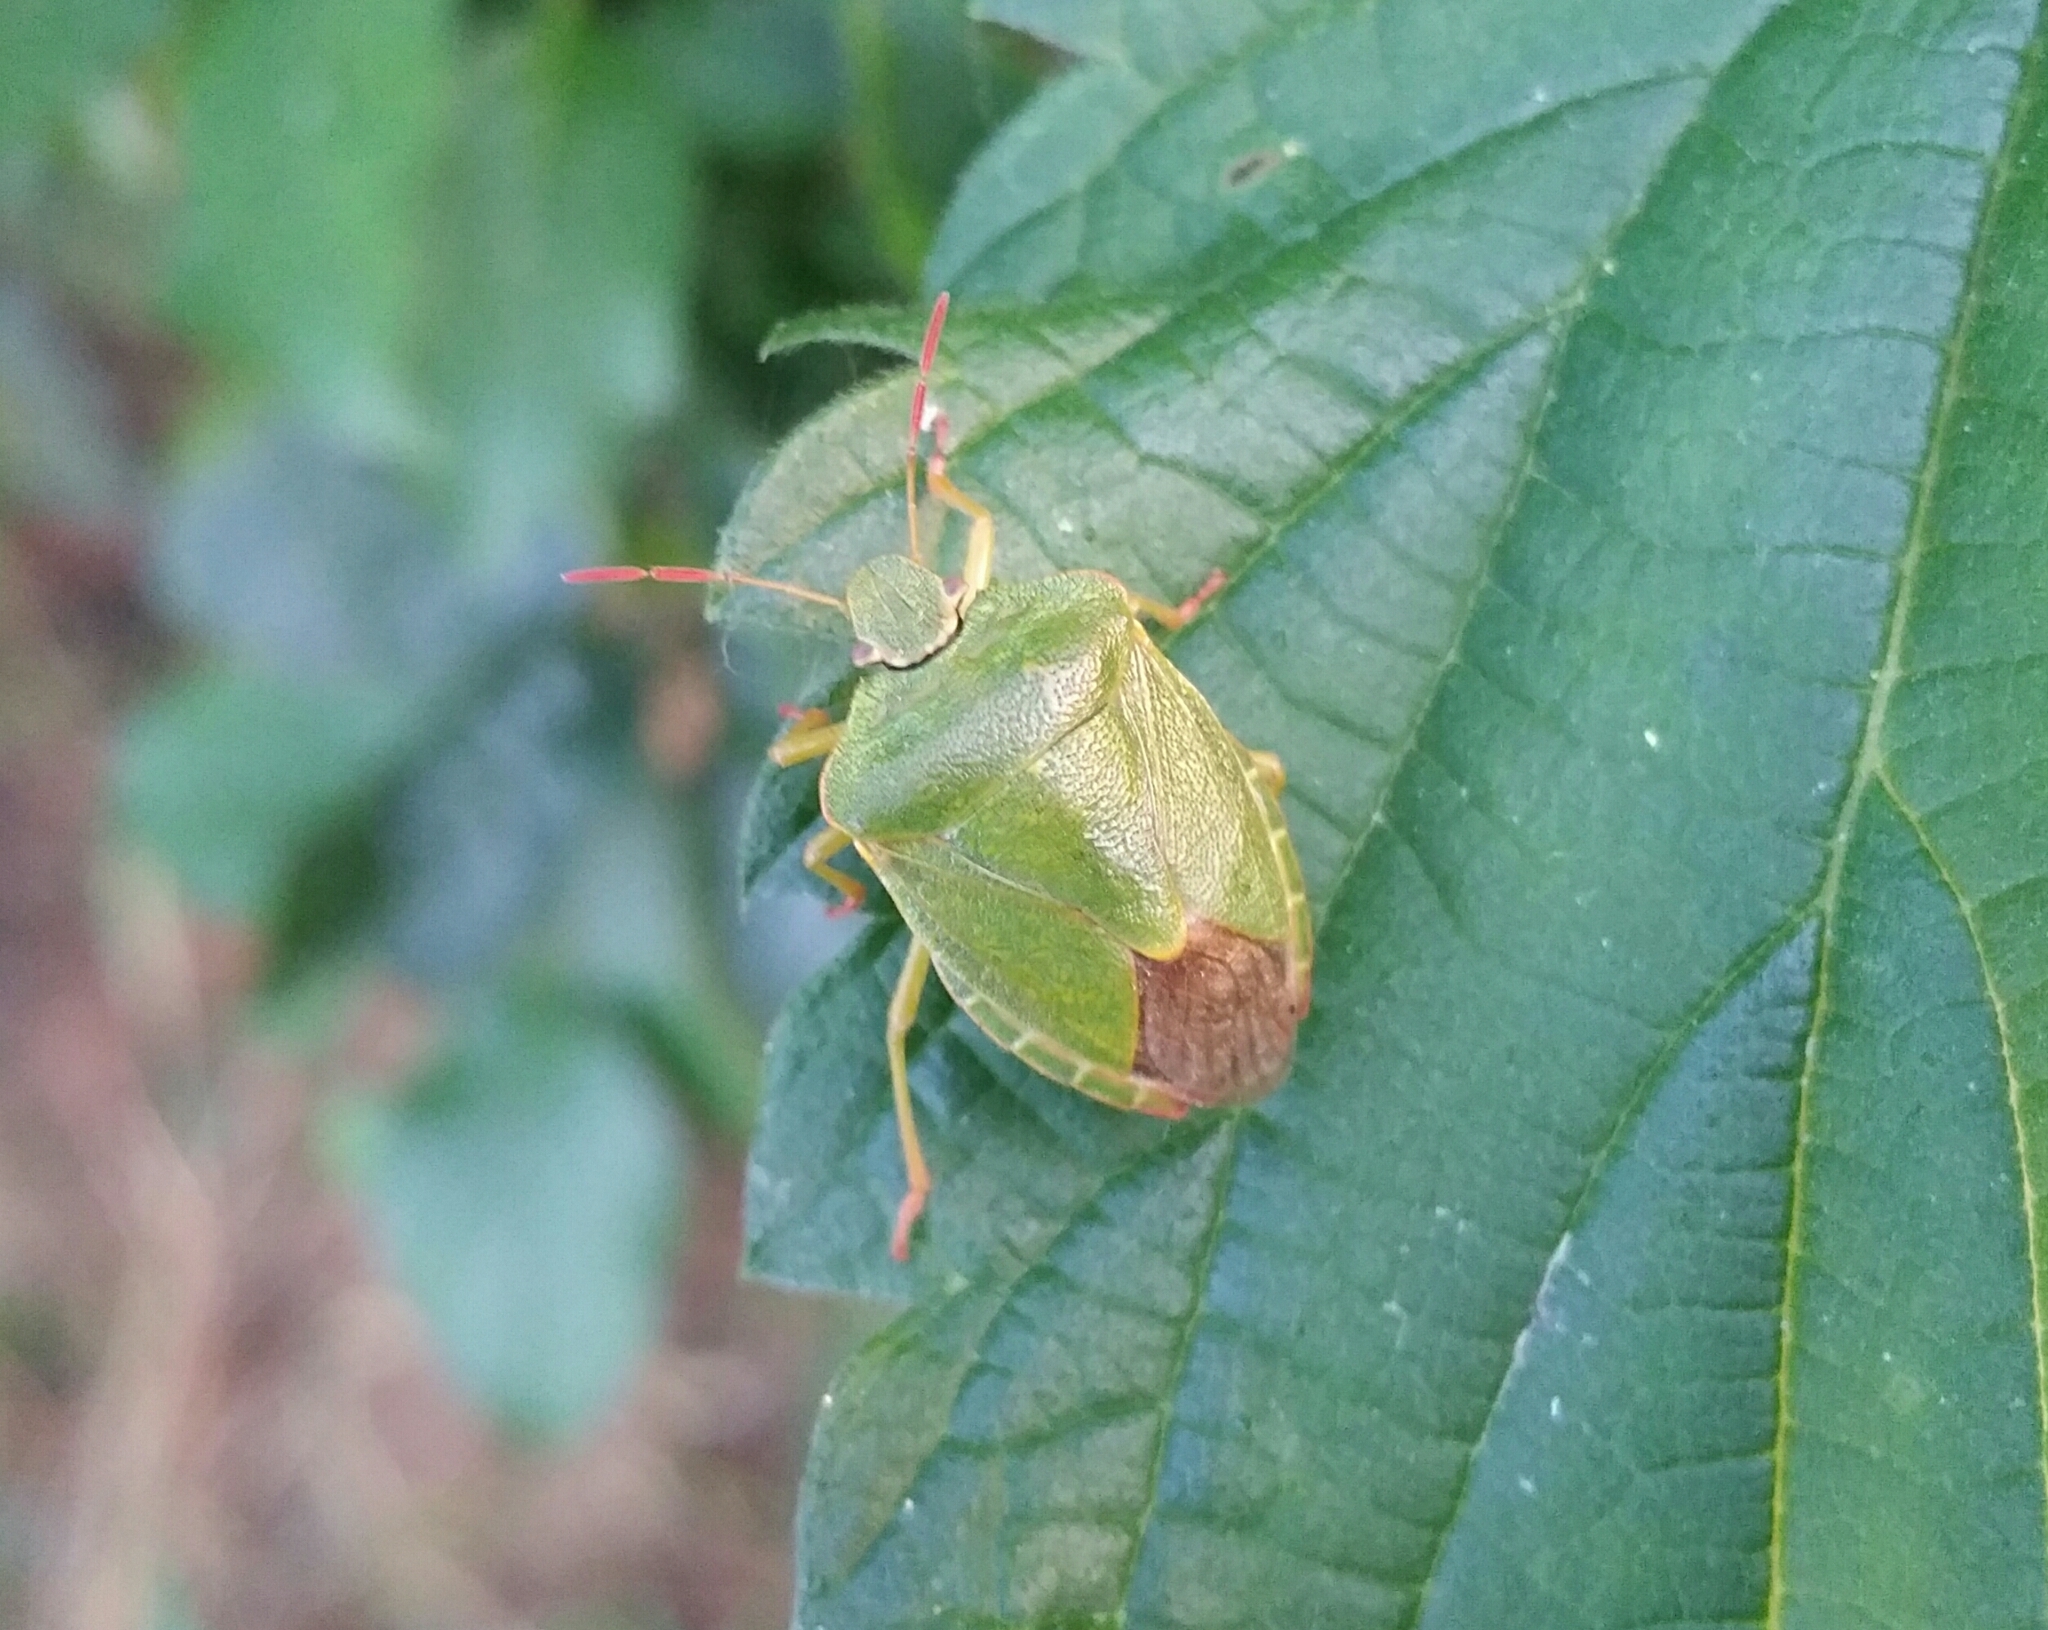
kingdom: Animalia
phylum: Arthropoda
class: Insecta
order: Hemiptera
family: Pentatomidae
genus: Palomena
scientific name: Palomena prasina
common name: Green shieldbug
